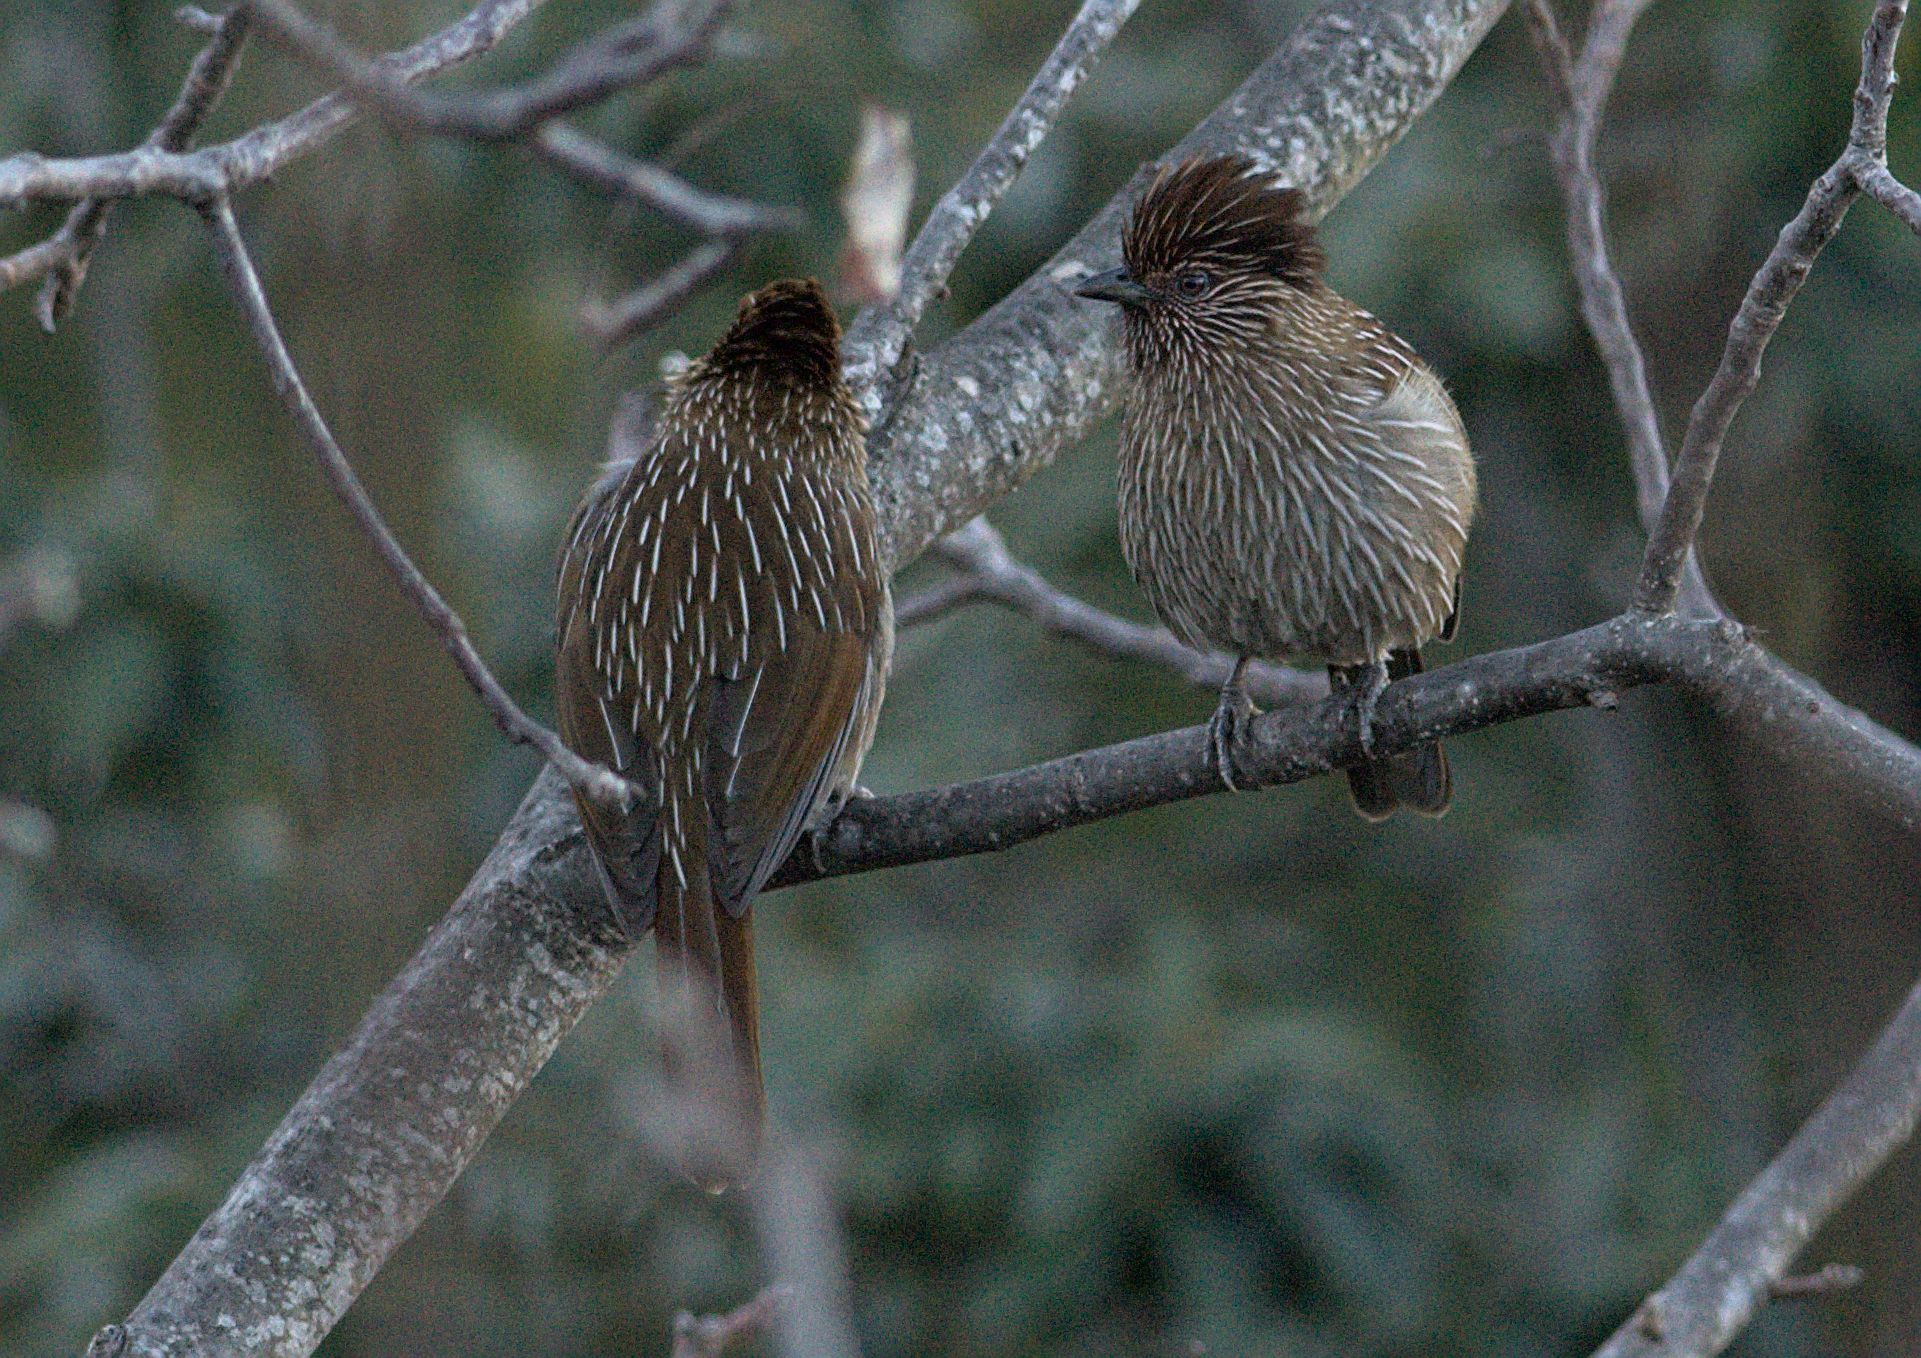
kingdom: Animalia
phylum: Chordata
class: Aves
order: Passeriformes
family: Leiothrichidae
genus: Garrulax
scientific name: Garrulax striatus
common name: Striated laughingthrush
